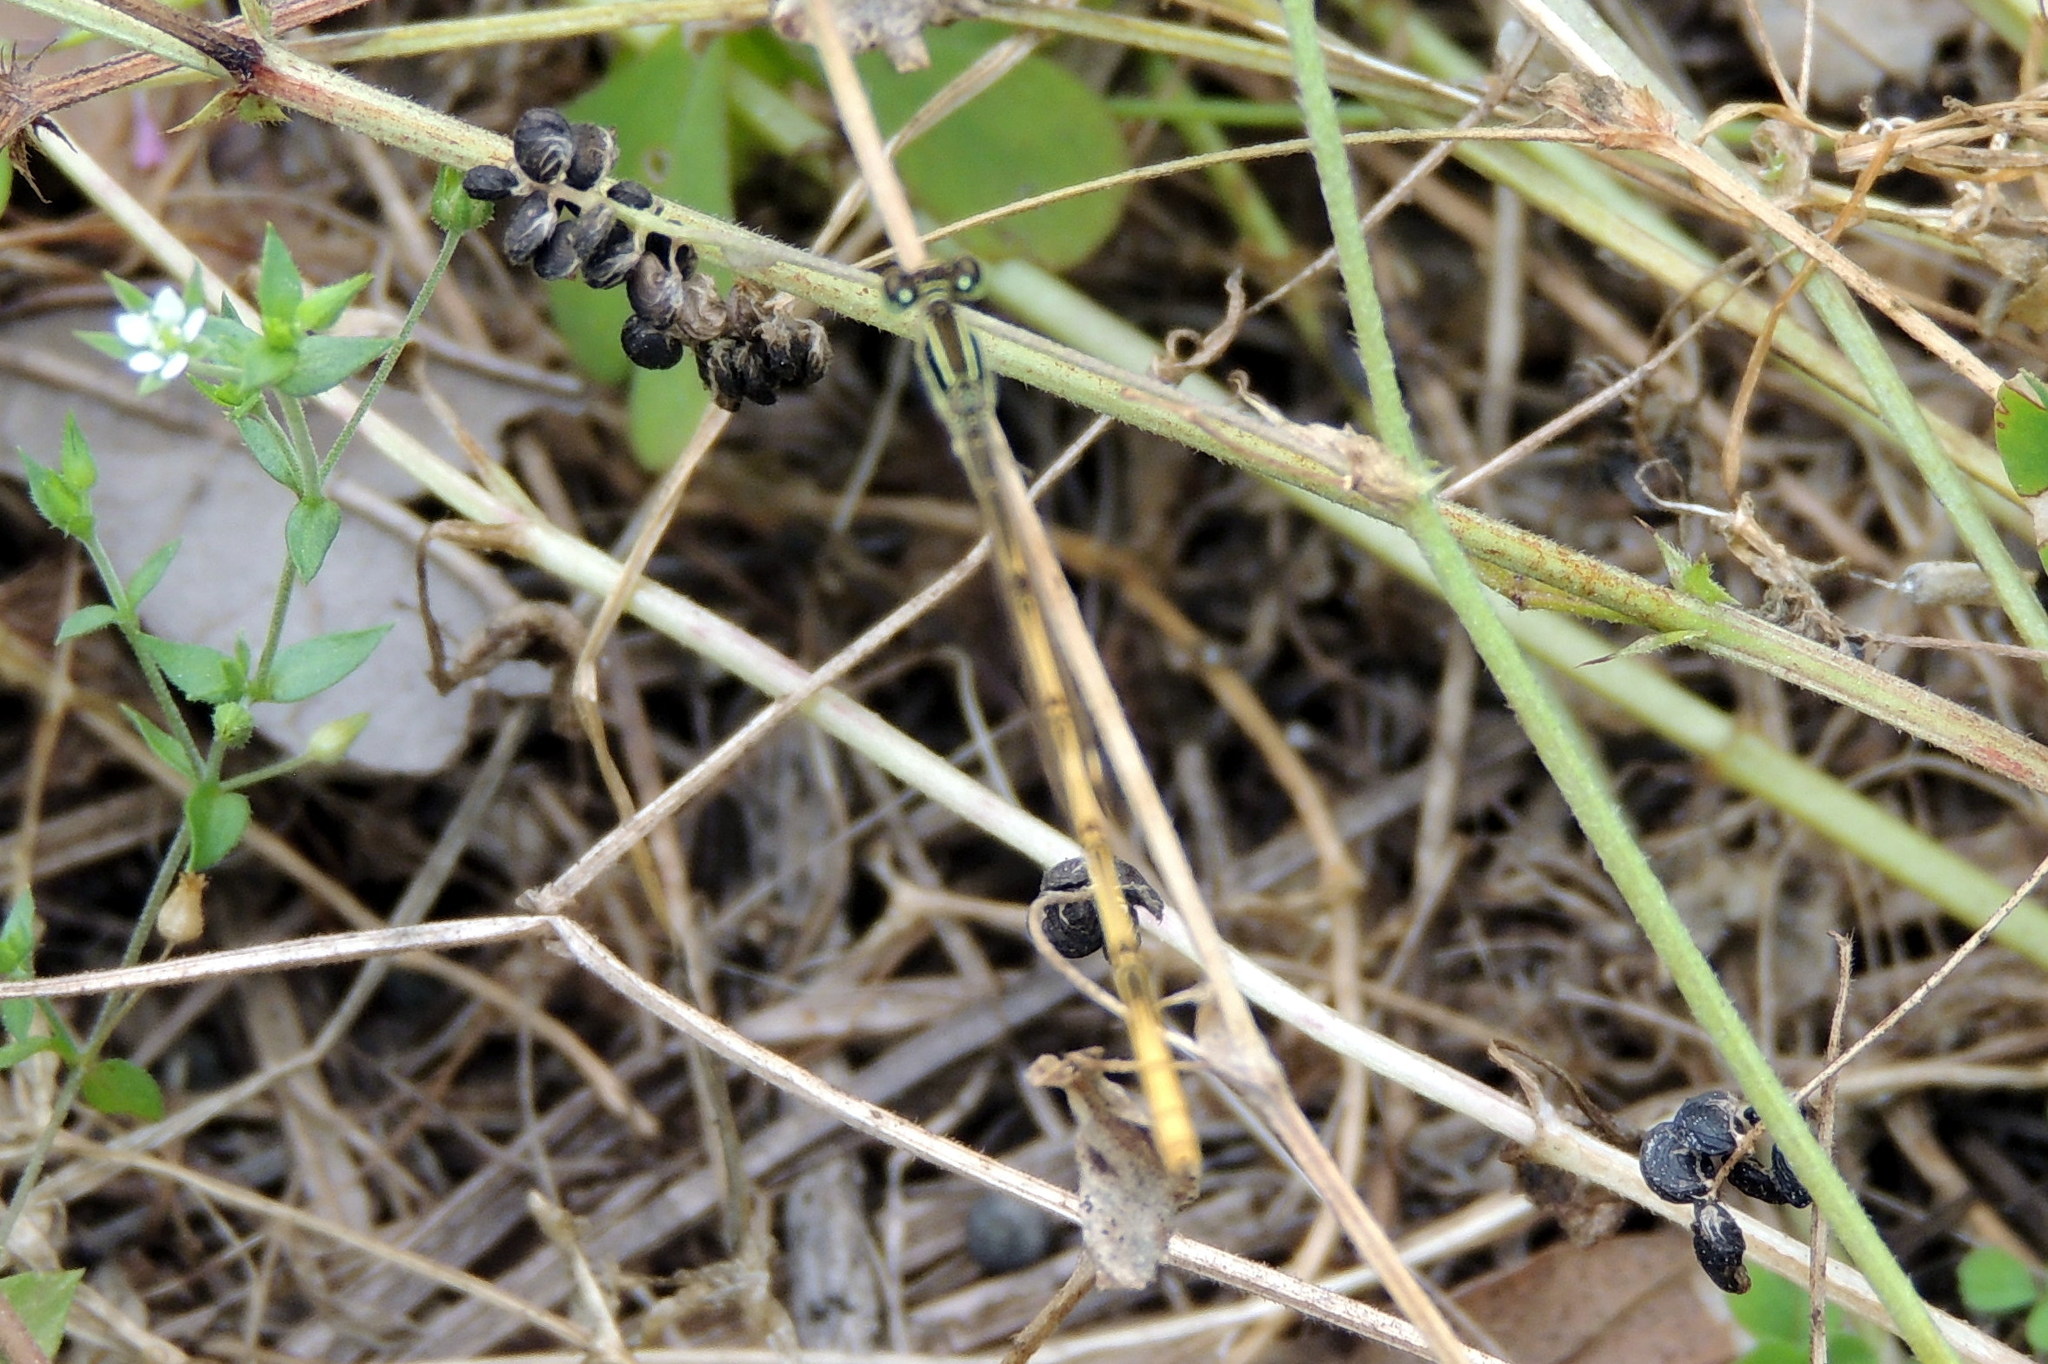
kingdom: Animalia
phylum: Arthropoda
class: Insecta
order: Odonata
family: Coenagrionidae
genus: Ischnura
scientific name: Ischnura hastata
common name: Citrine forktail
